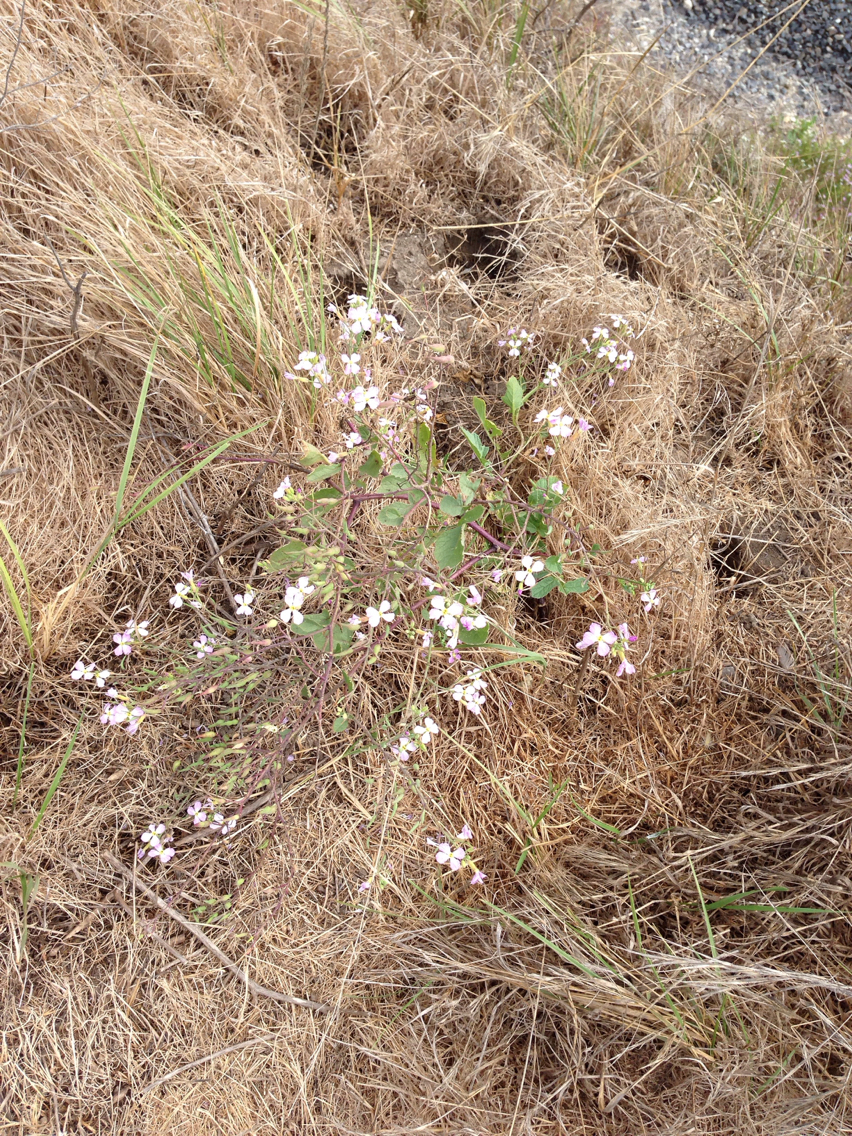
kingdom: Plantae
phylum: Tracheophyta
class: Magnoliopsida
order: Brassicales
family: Brassicaceae
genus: Raphanus
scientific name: Raphanus raphanistrum
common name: Wild radish
